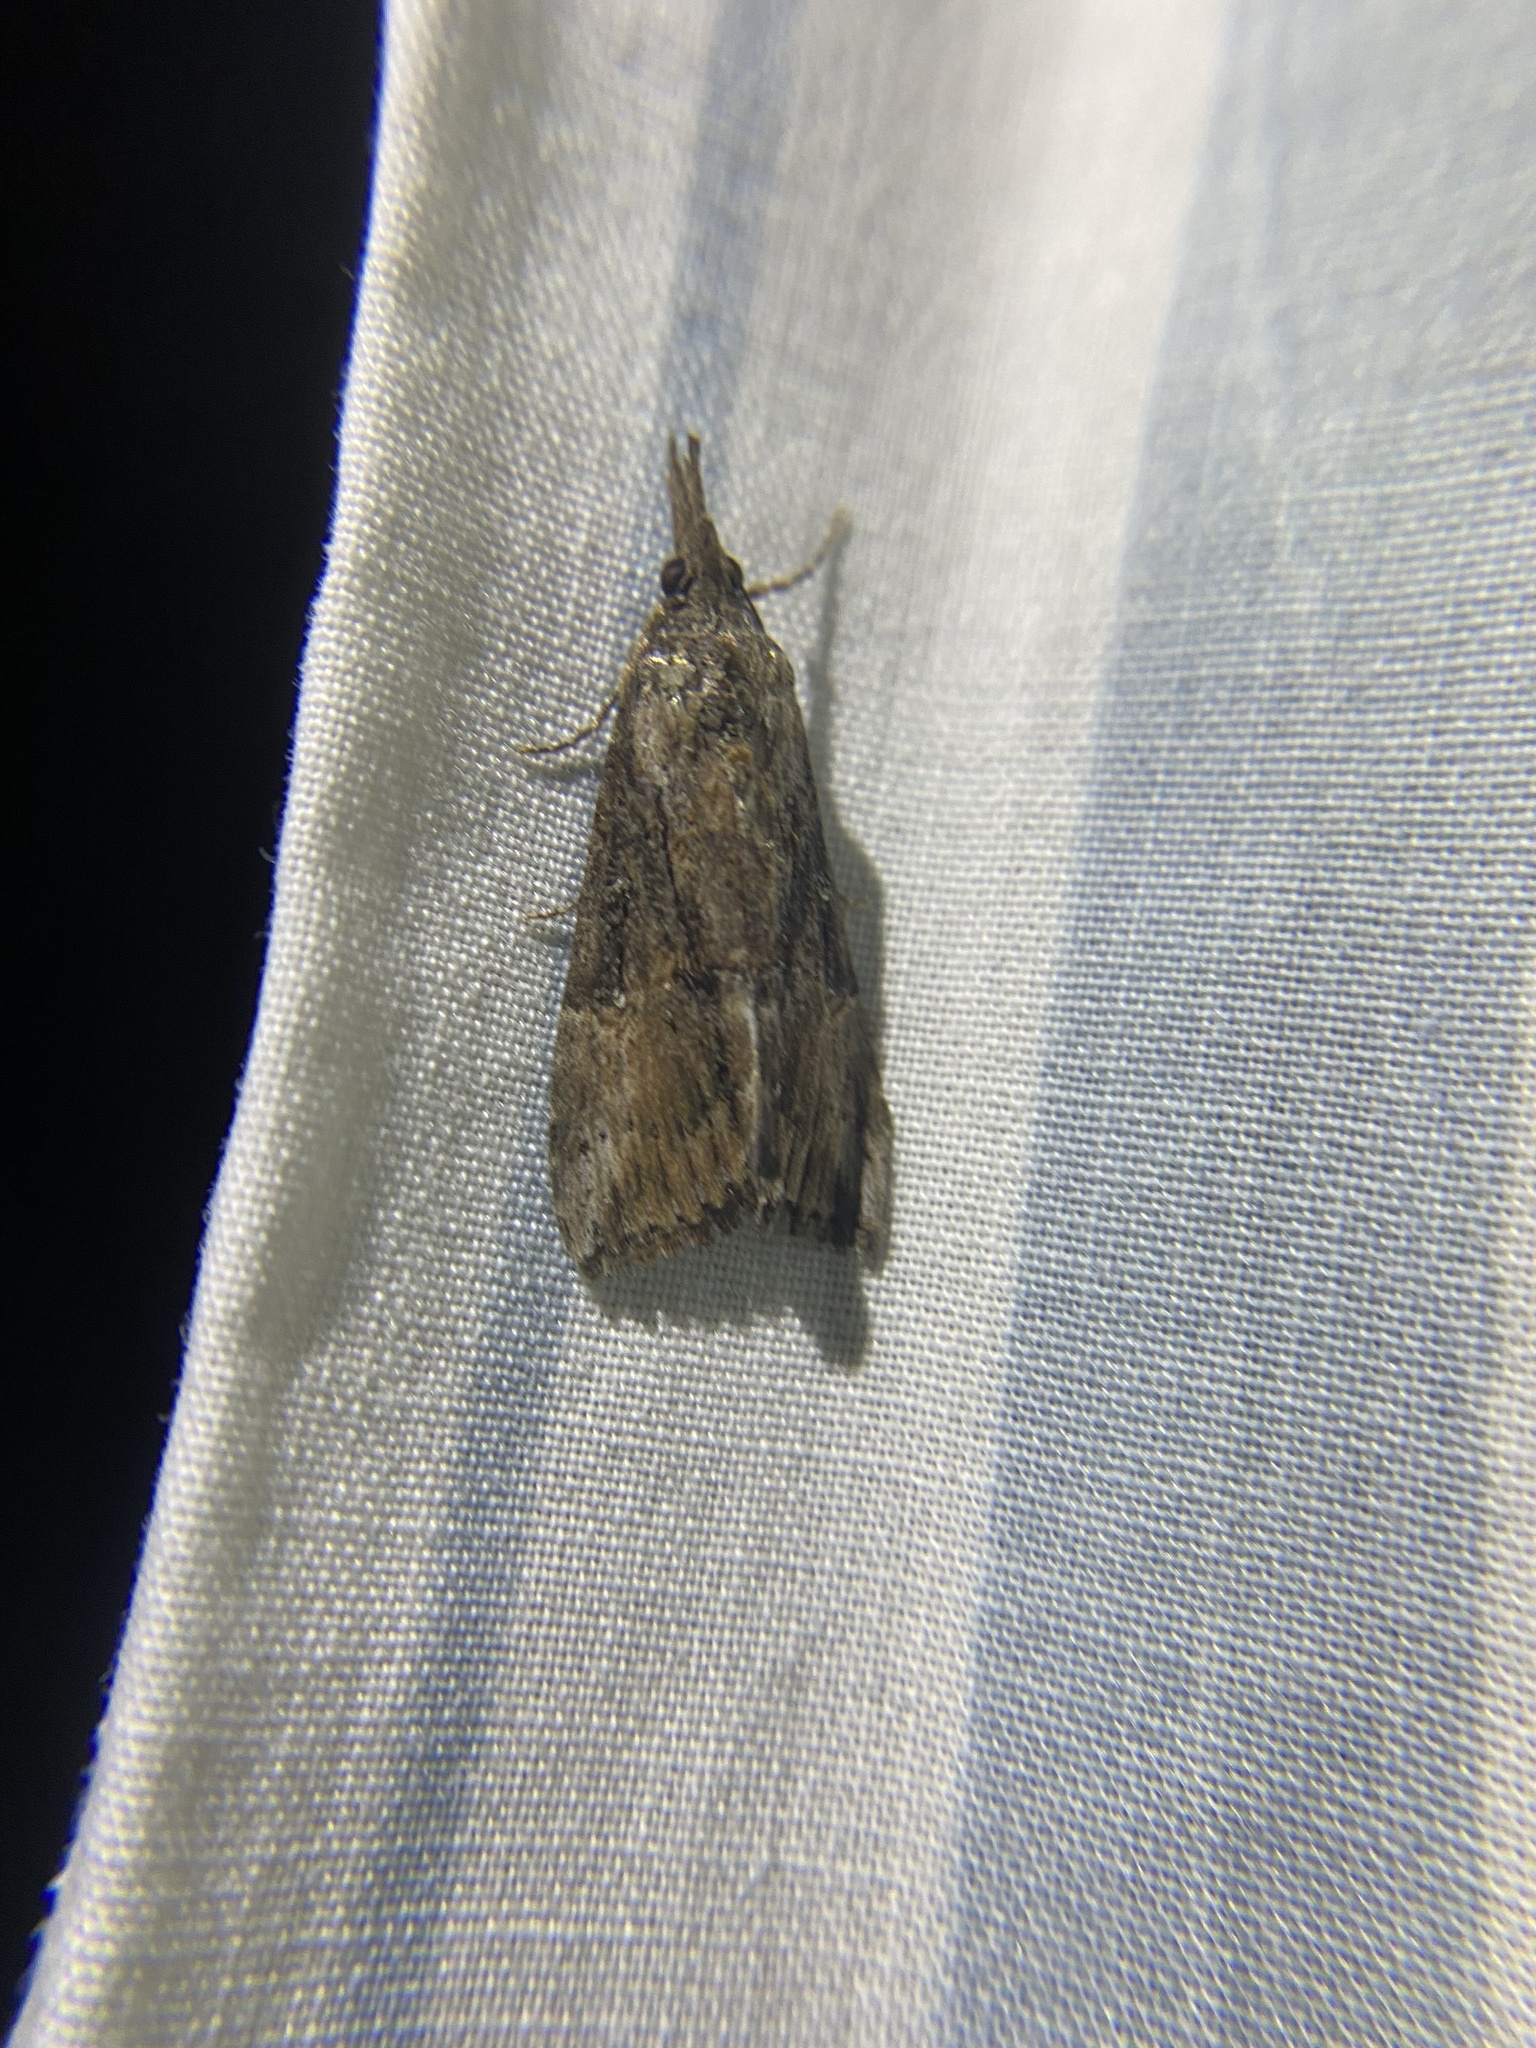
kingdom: Animalia
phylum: Arthropoda
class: Insecta
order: Lepidoptera
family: Erebidae
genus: Hypena
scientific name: Hypena scabra
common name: Green cloverworm
